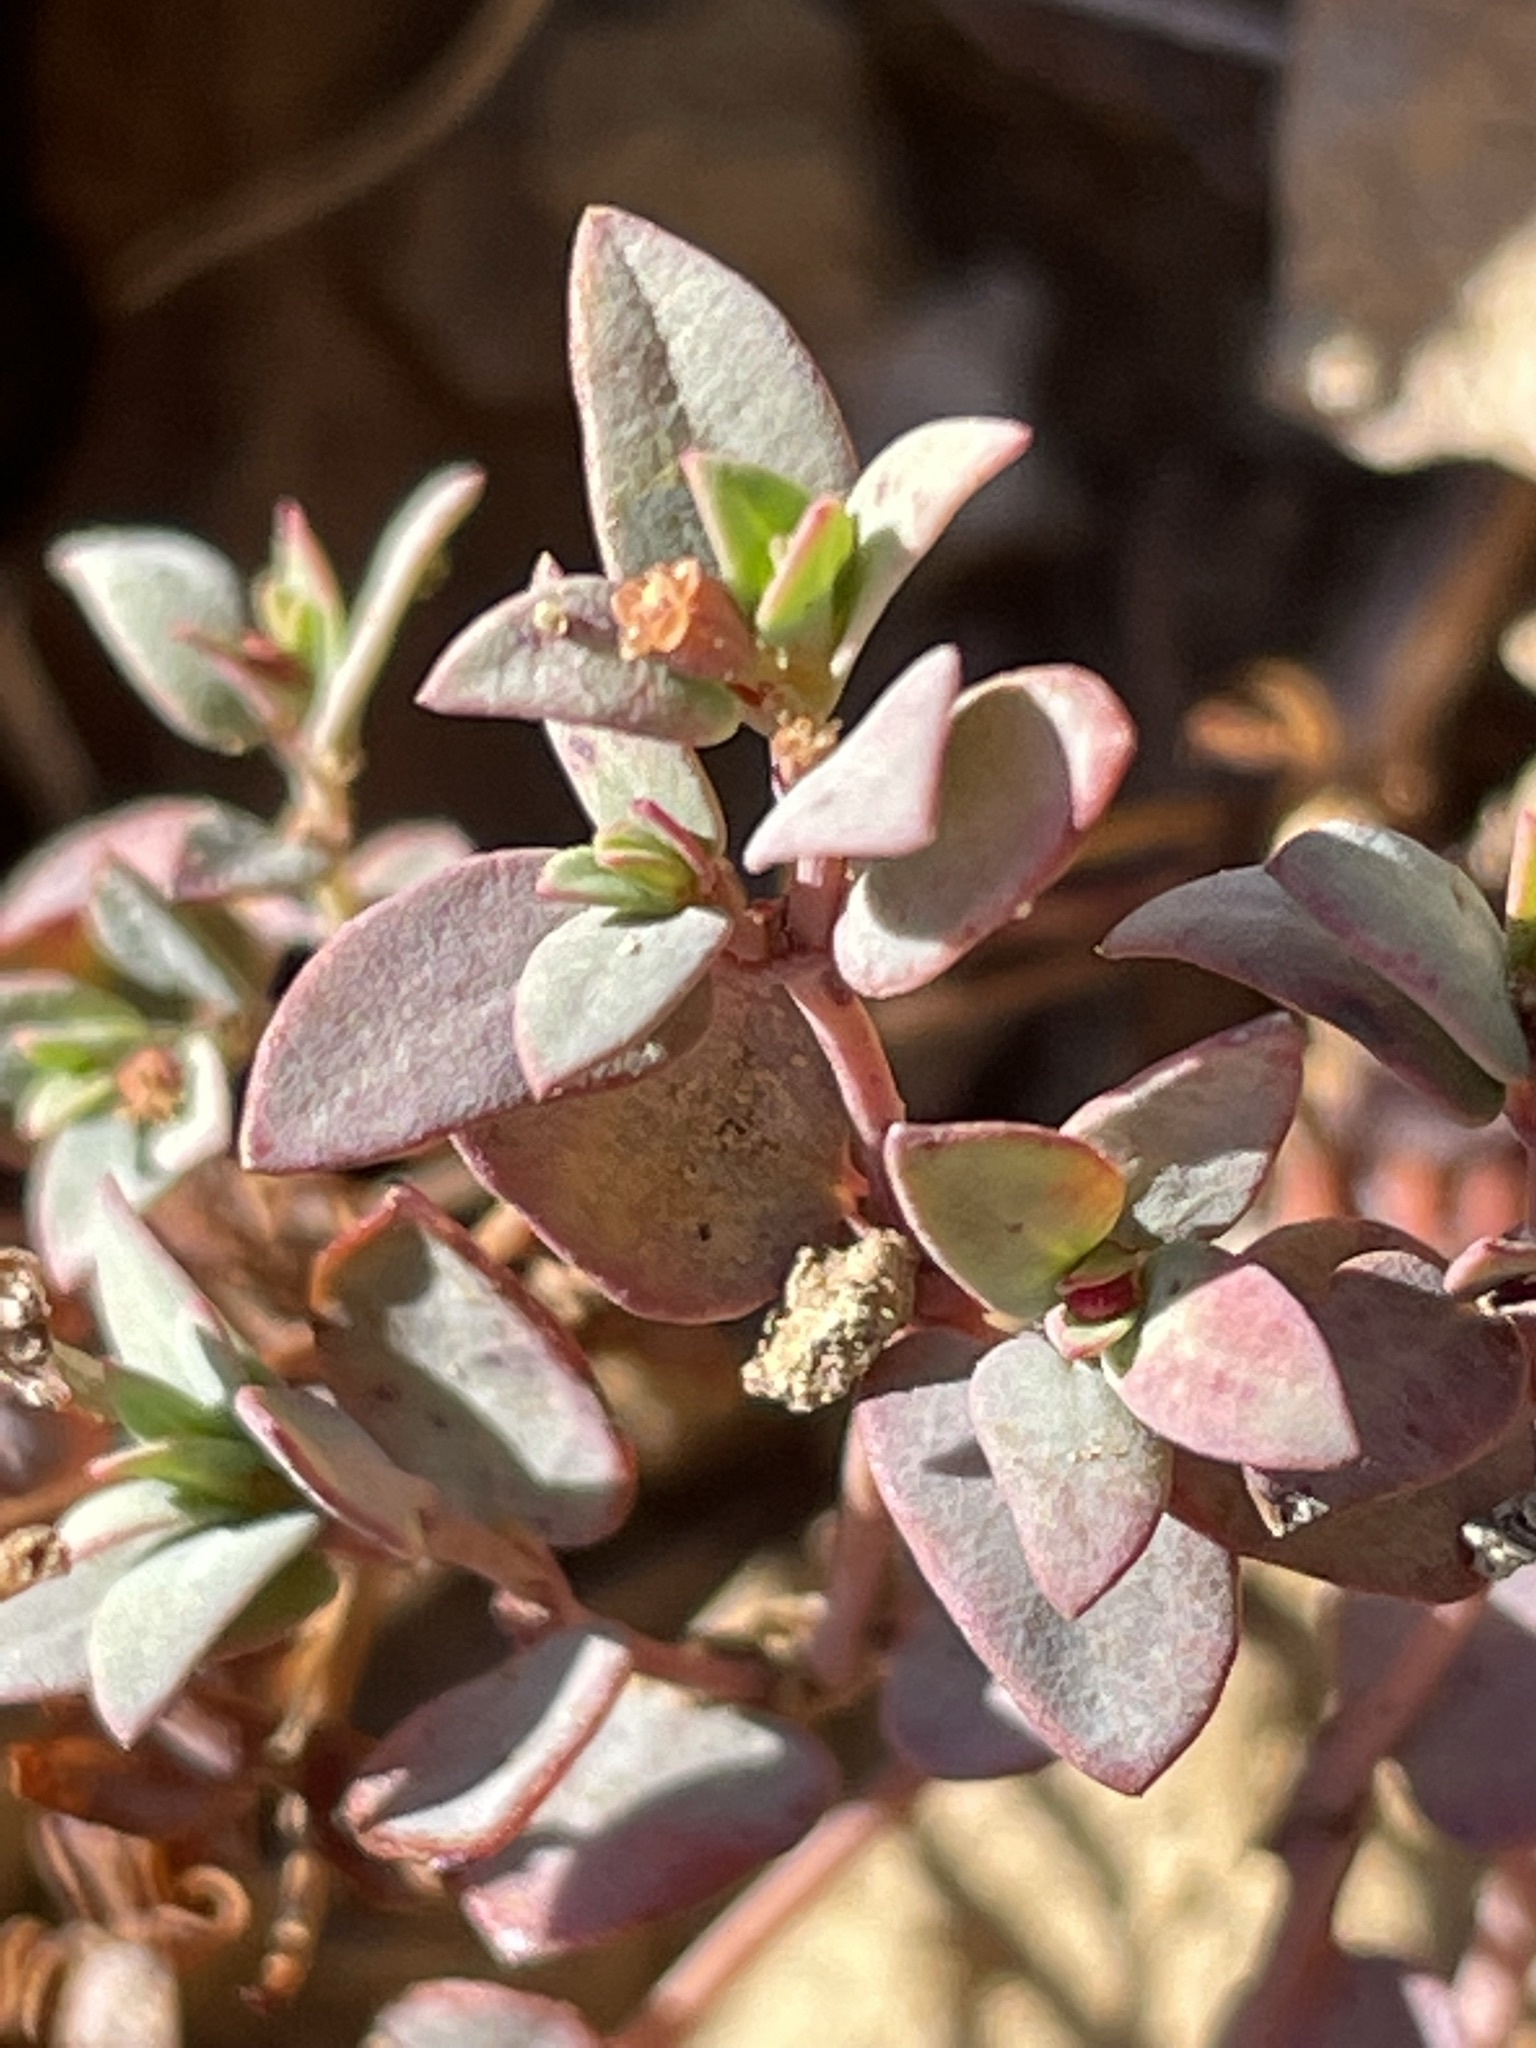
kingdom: Plantae
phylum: Tracheophyta
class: Magnoliopsida
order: Malpighiales
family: Euphorbiaceae
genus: Euphorbia
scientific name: Euphorbia fendleri
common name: Fendler's euphorbia
